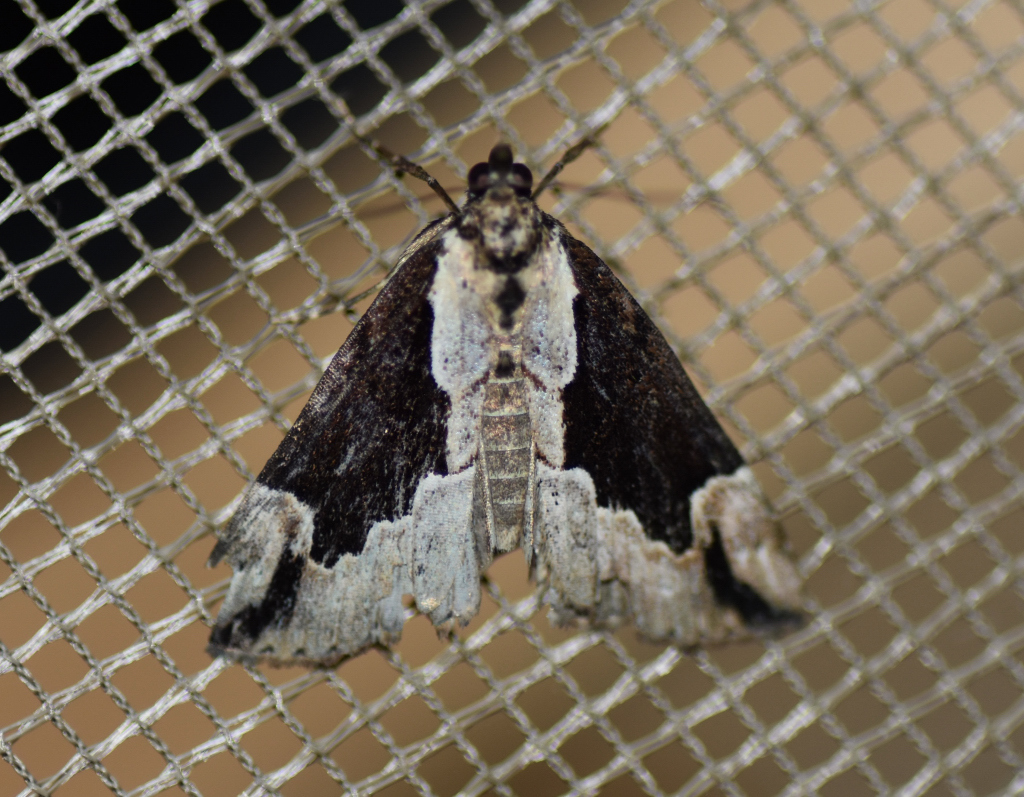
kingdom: Animalia
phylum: Arthropoda
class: Insecta
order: Lepidoptera
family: Erebidae
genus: Hypena
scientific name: Hypena baltimoralis
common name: Baltimore snout
